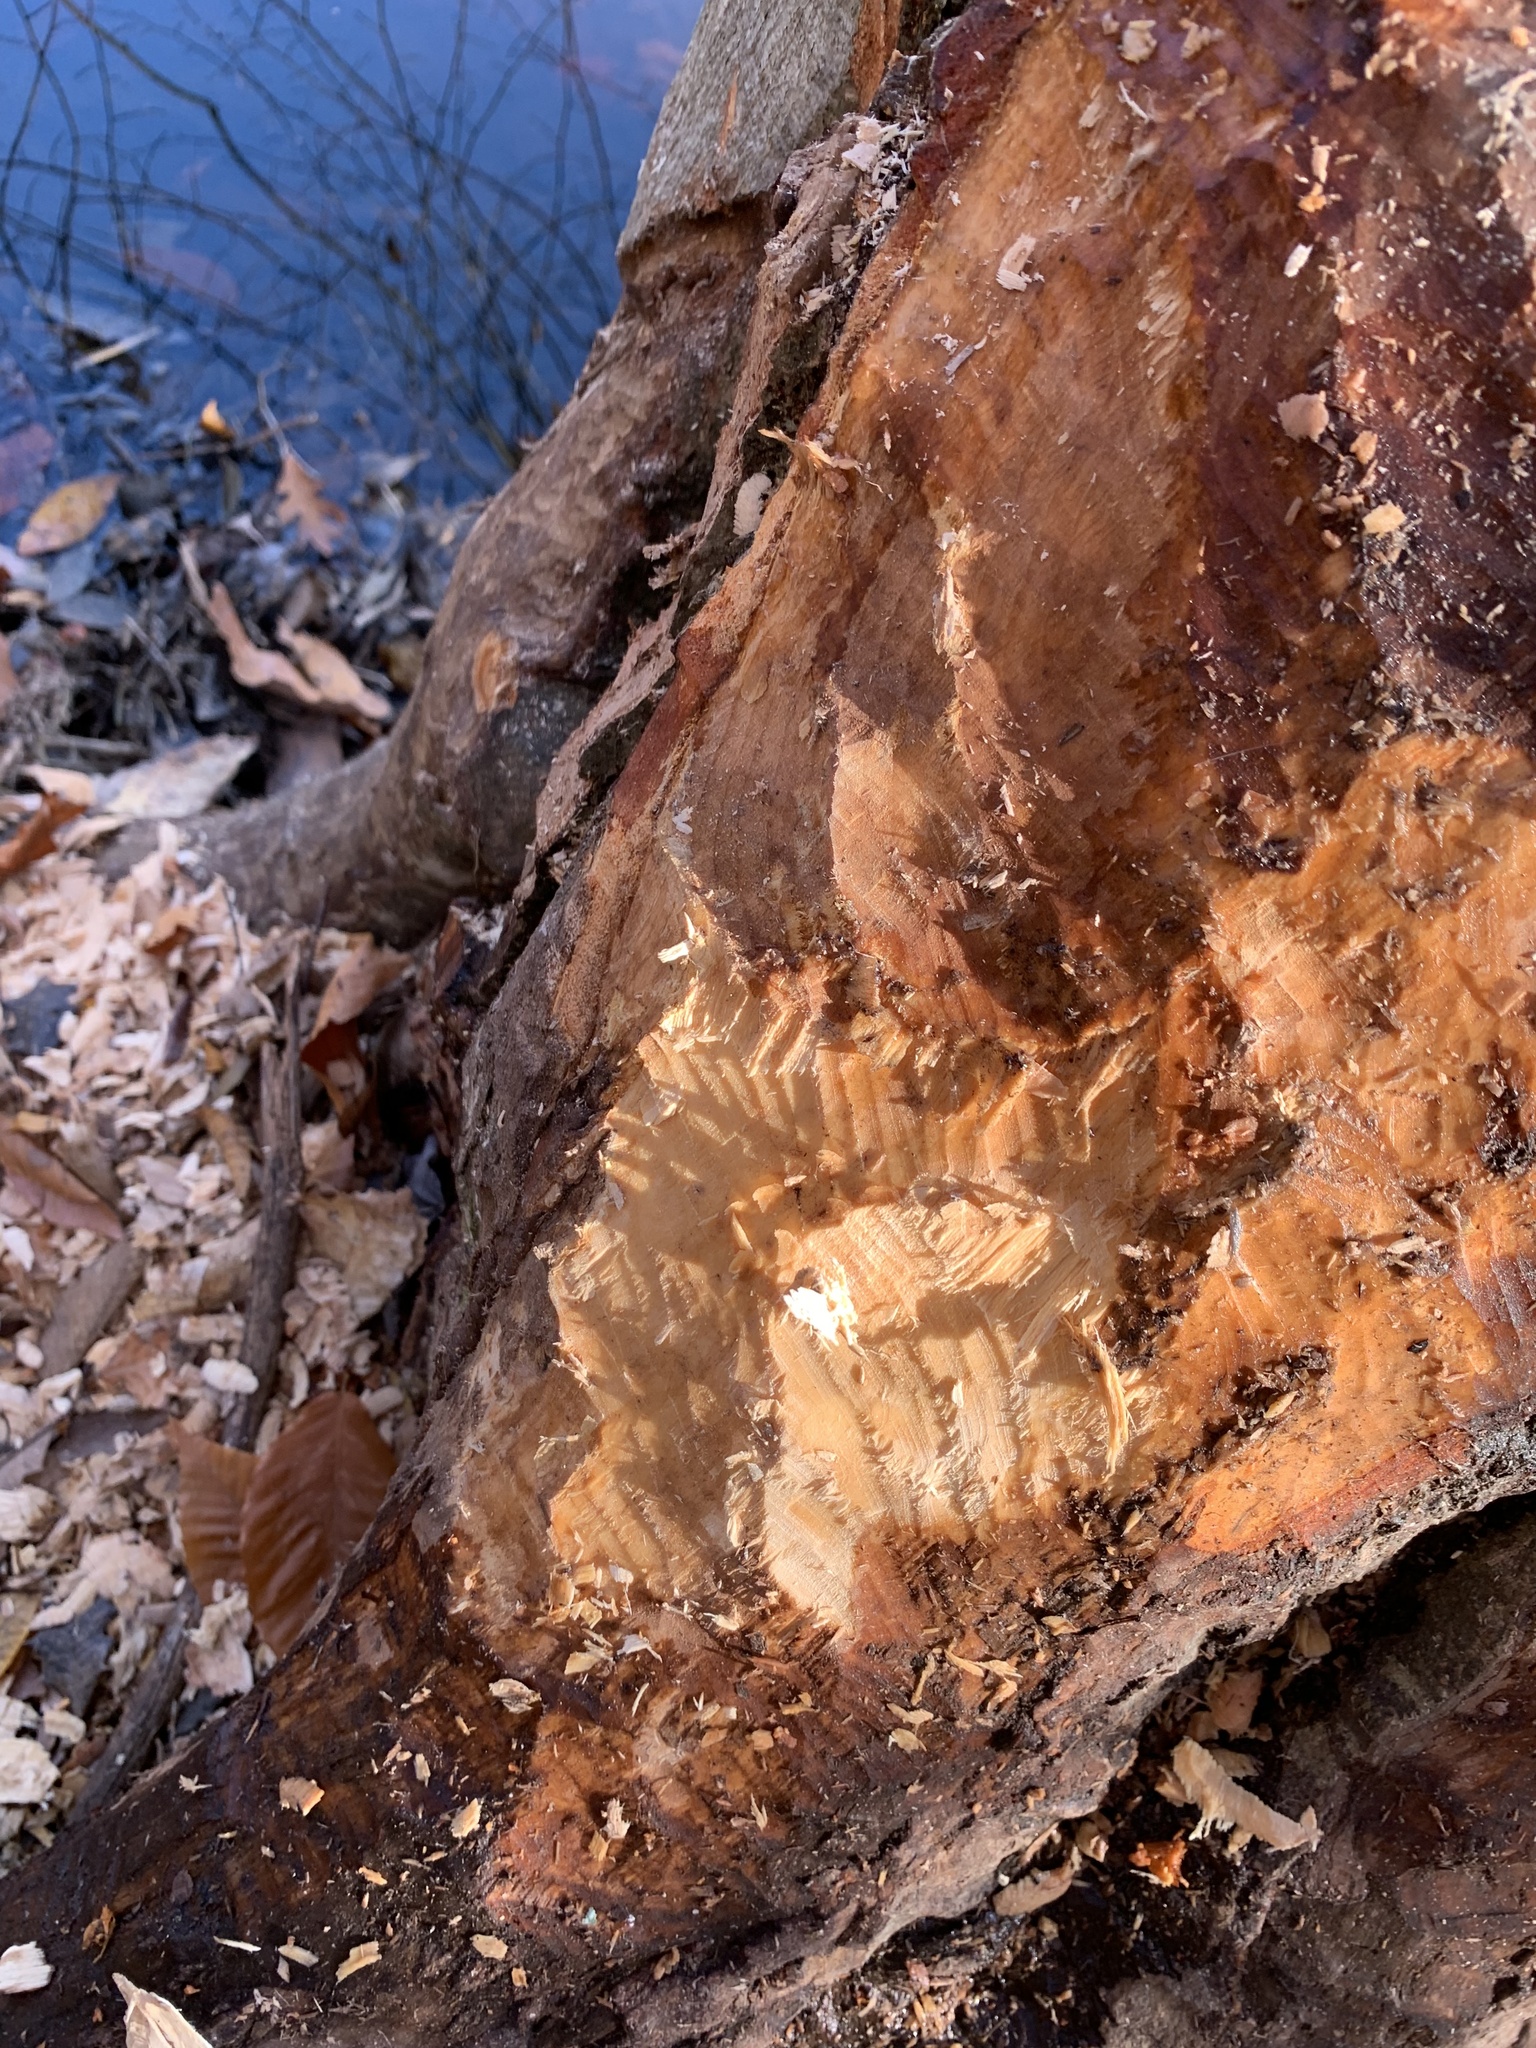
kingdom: Animalia
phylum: Chordata
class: Mammalia
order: Rodentia
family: Castoridae
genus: Castor
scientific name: Castor canadensis
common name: American beaver
